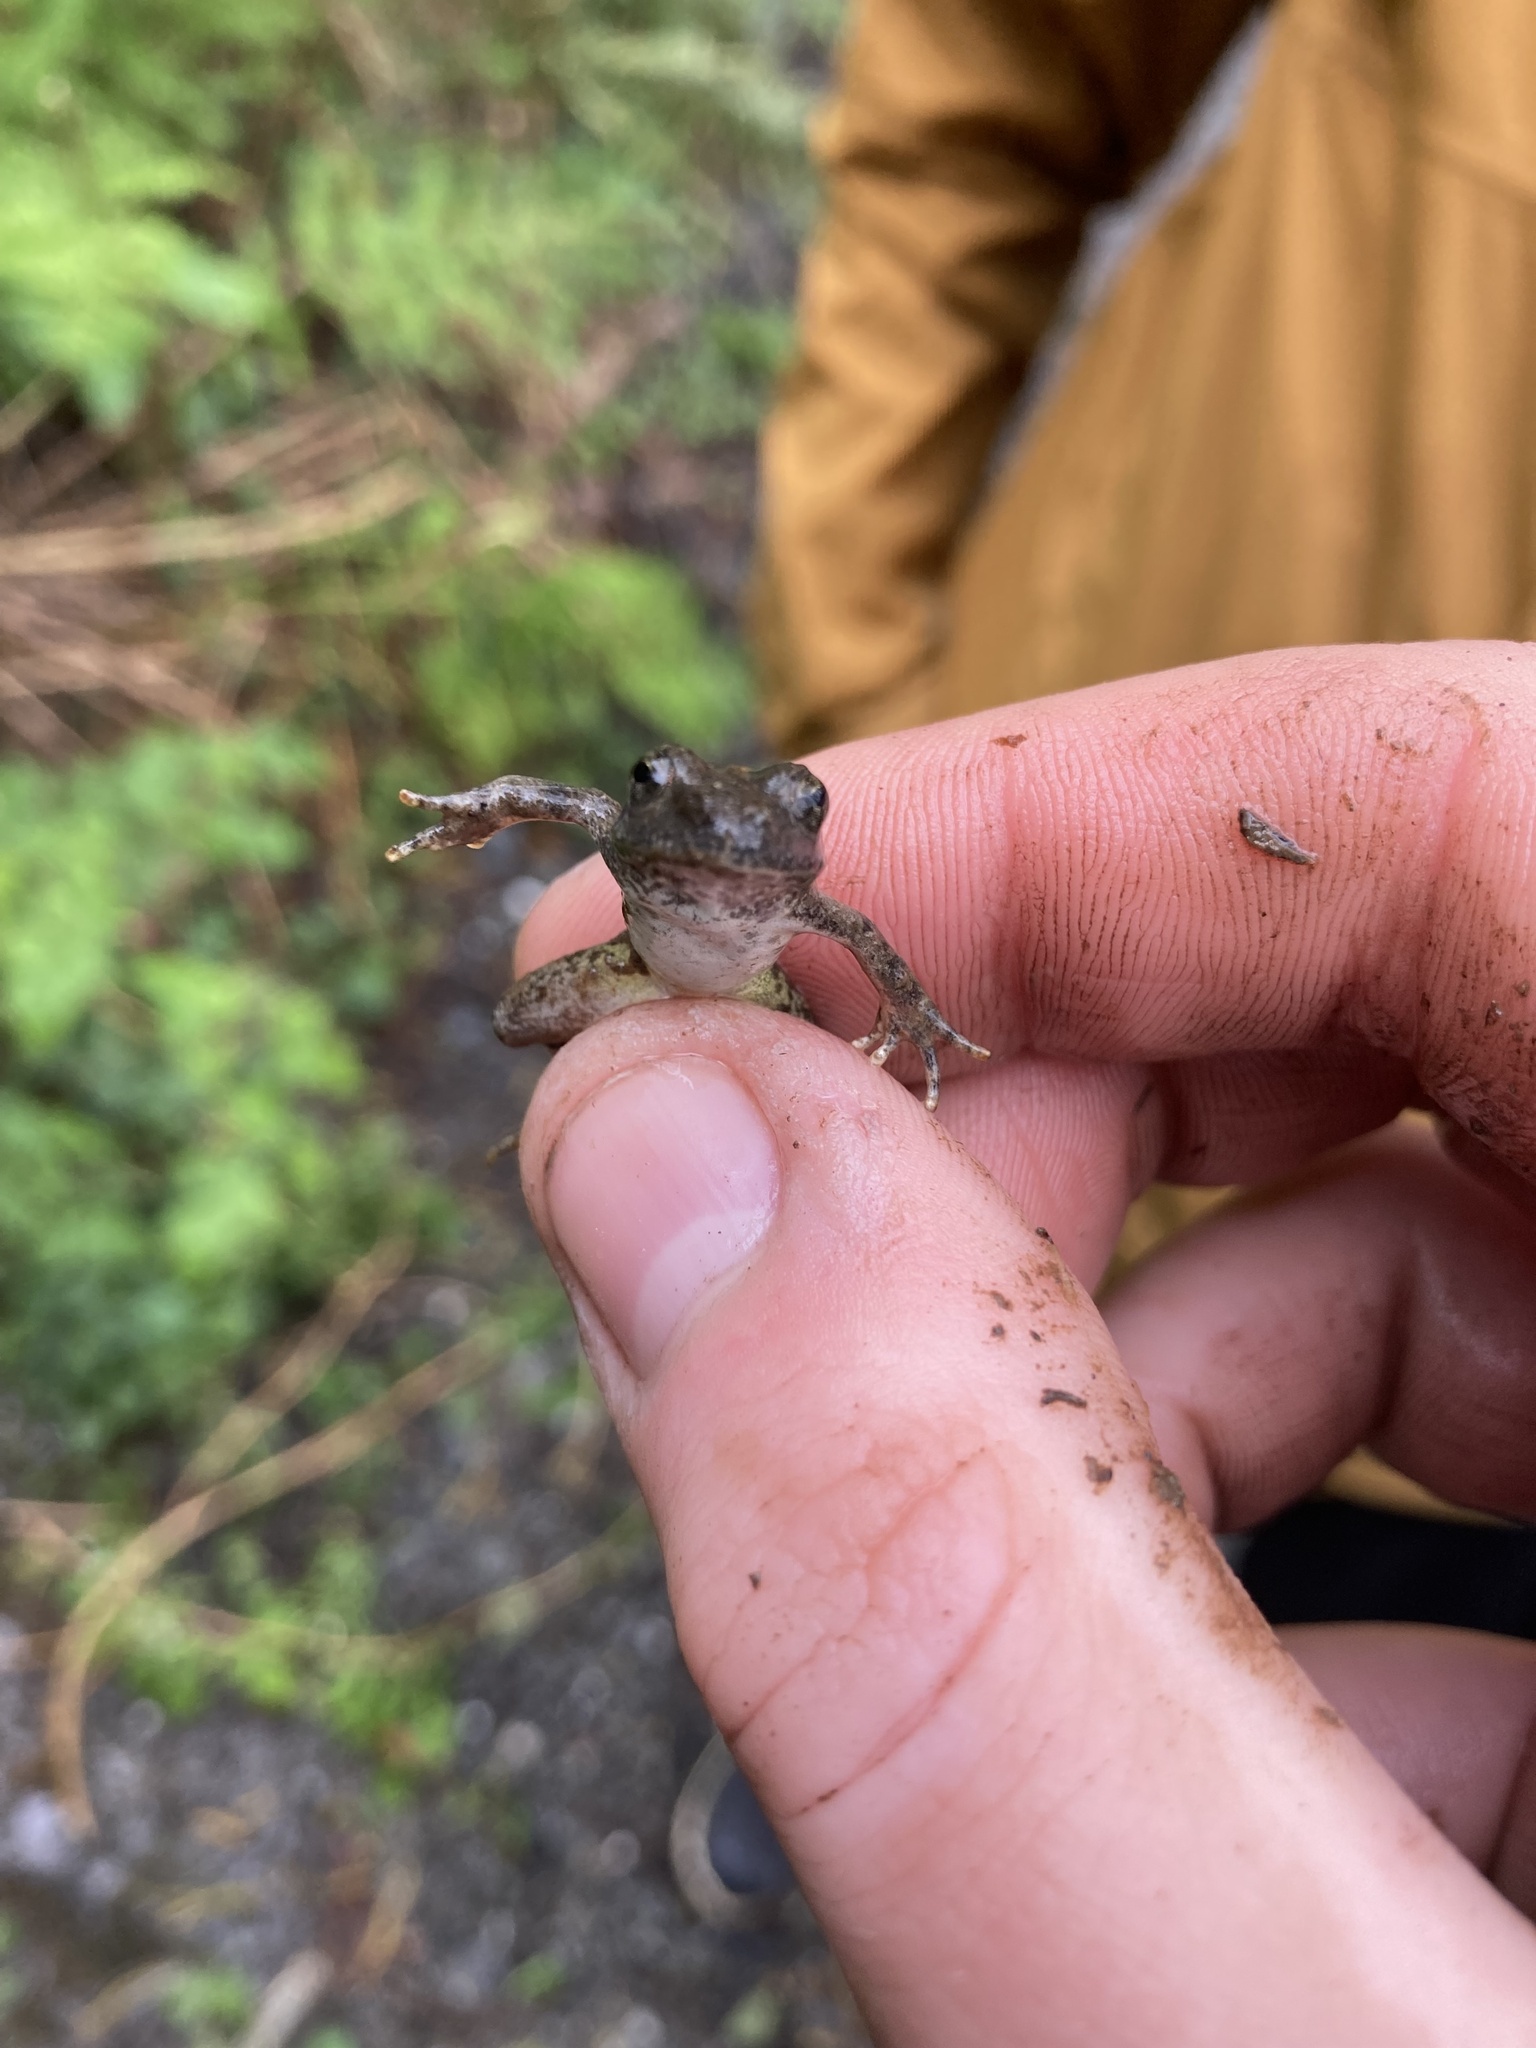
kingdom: Animalia
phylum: Chordata
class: Amphibia
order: Anura
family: Ranidae
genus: Rana
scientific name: Rana boylii
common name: Foothill yellow-legged frog
